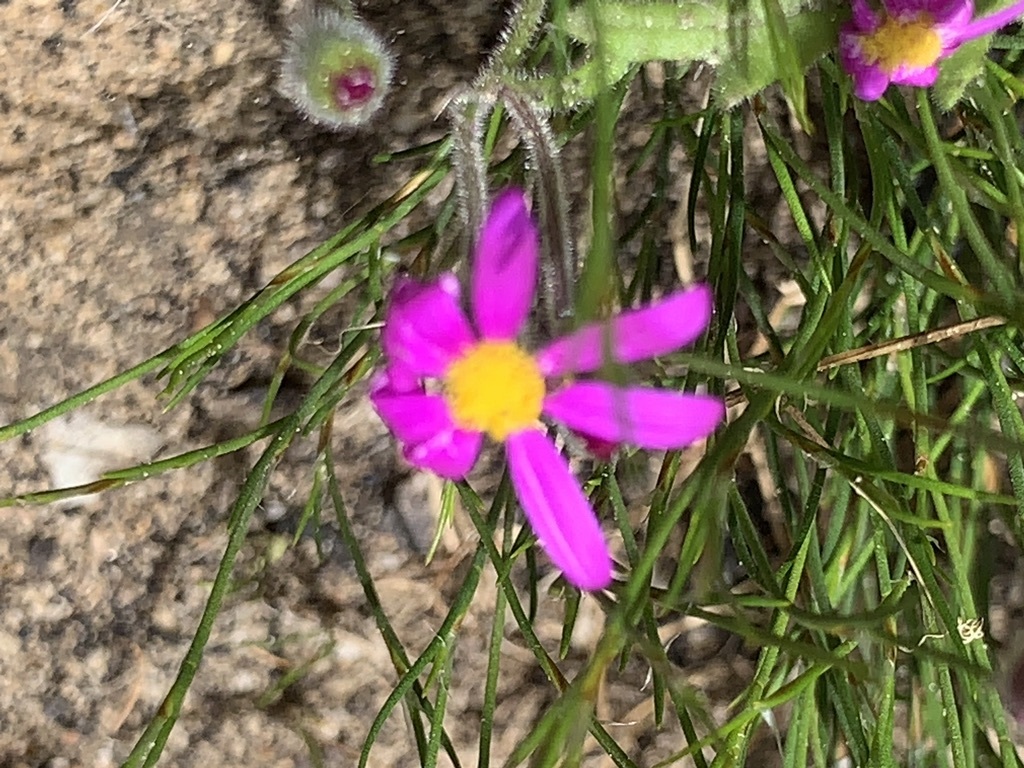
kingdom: Plantae
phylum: Tracheophyta
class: Magnoliopsida
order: Asterales
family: Asteraceae
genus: Senecio
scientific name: Senecio arenarius
